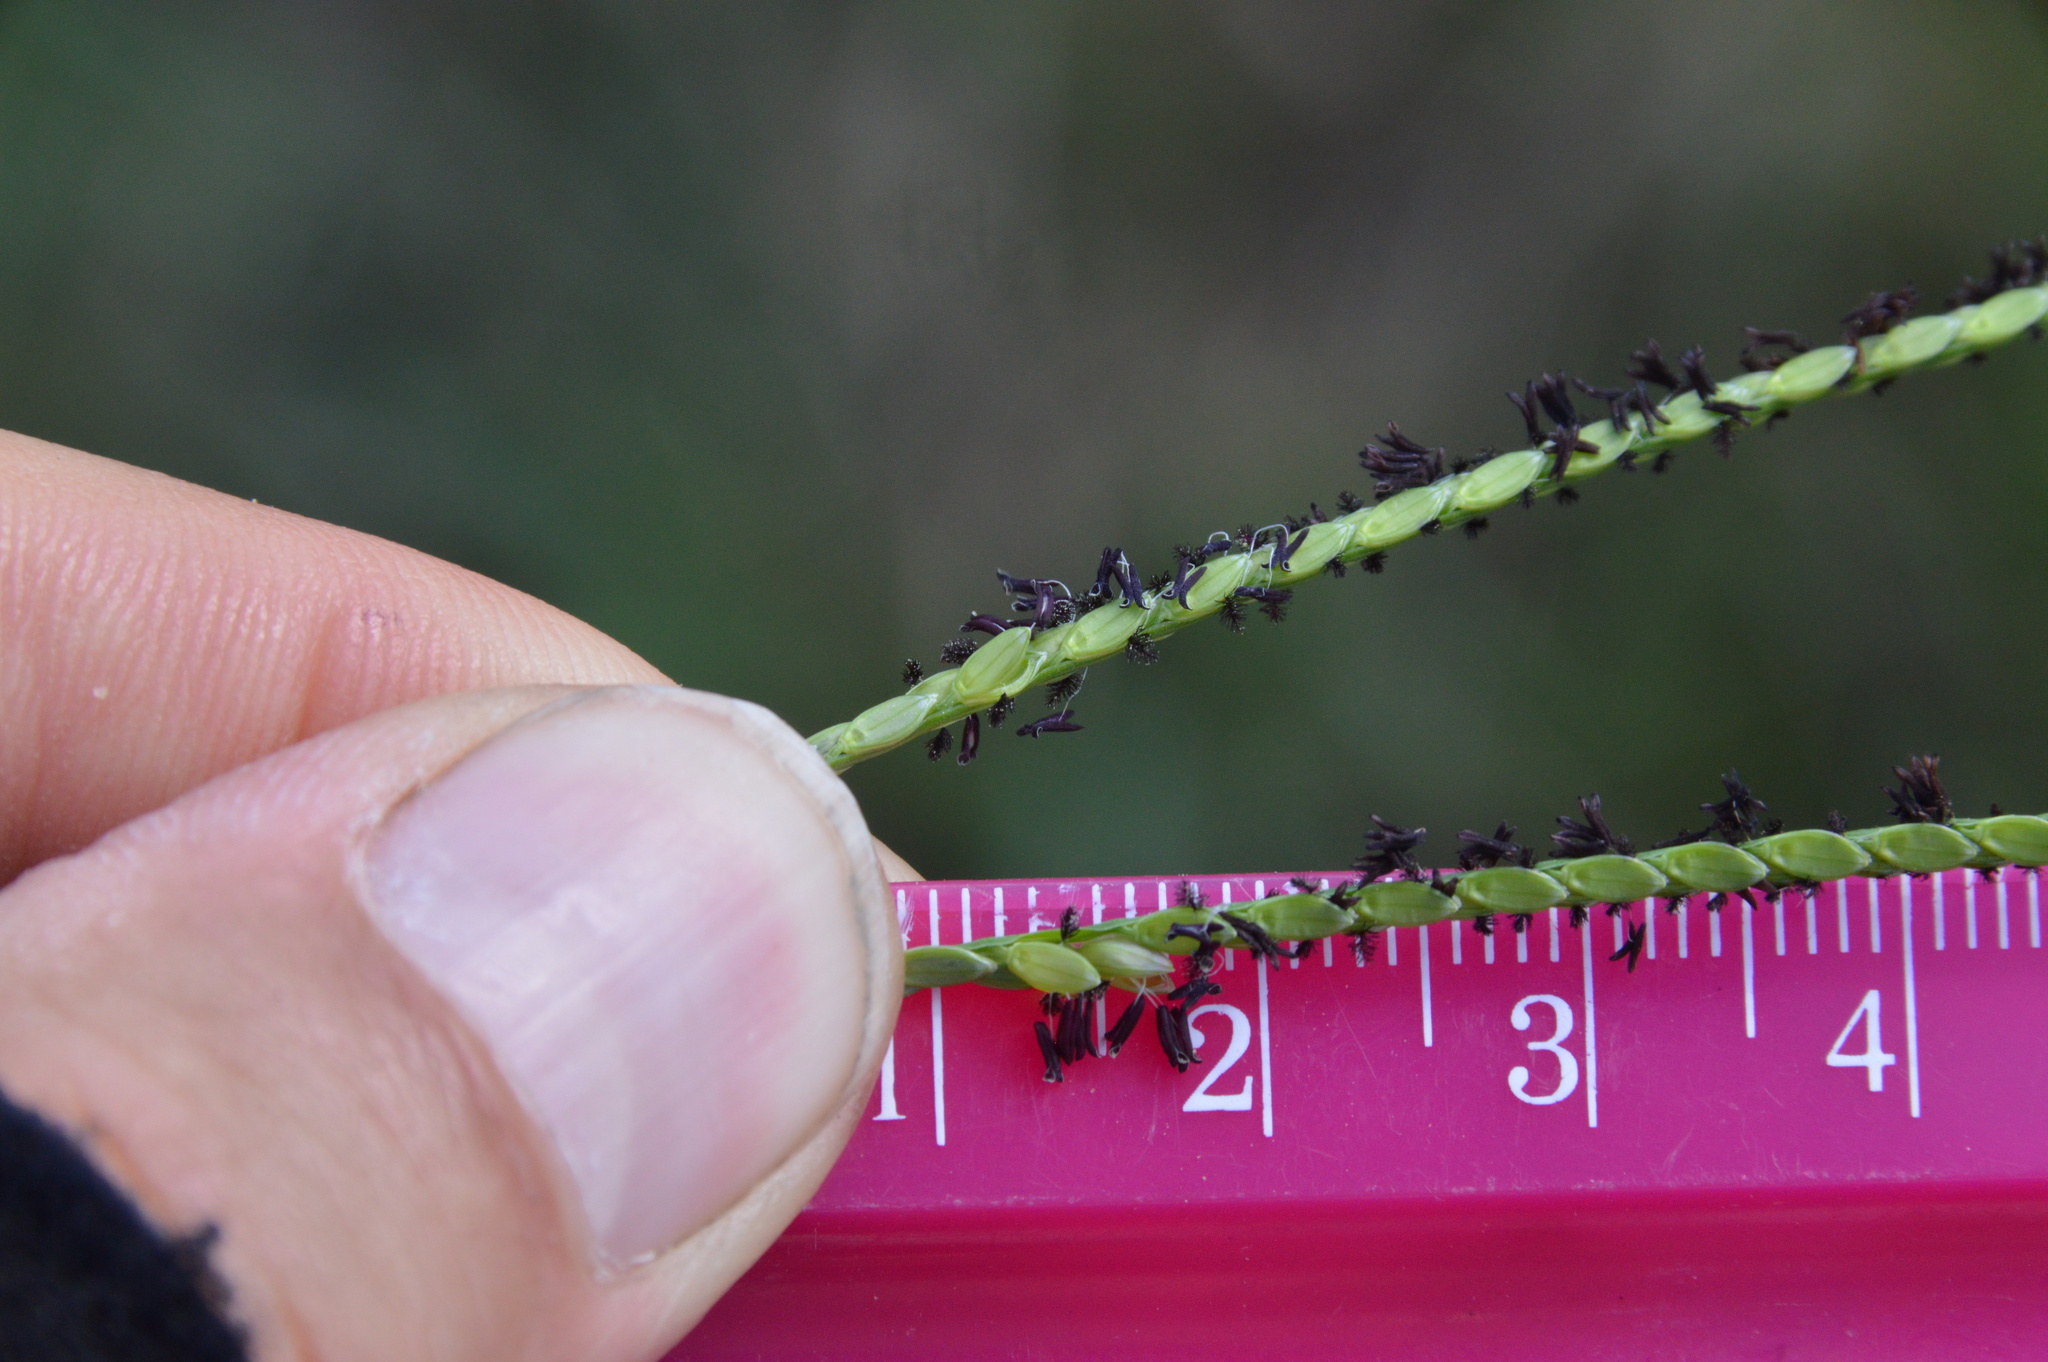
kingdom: Plantae
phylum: Tracheophyta
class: Liliopsida
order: Poales
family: Poaceae
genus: Paspalum
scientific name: Paspalum notatum
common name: Bahiagrass
